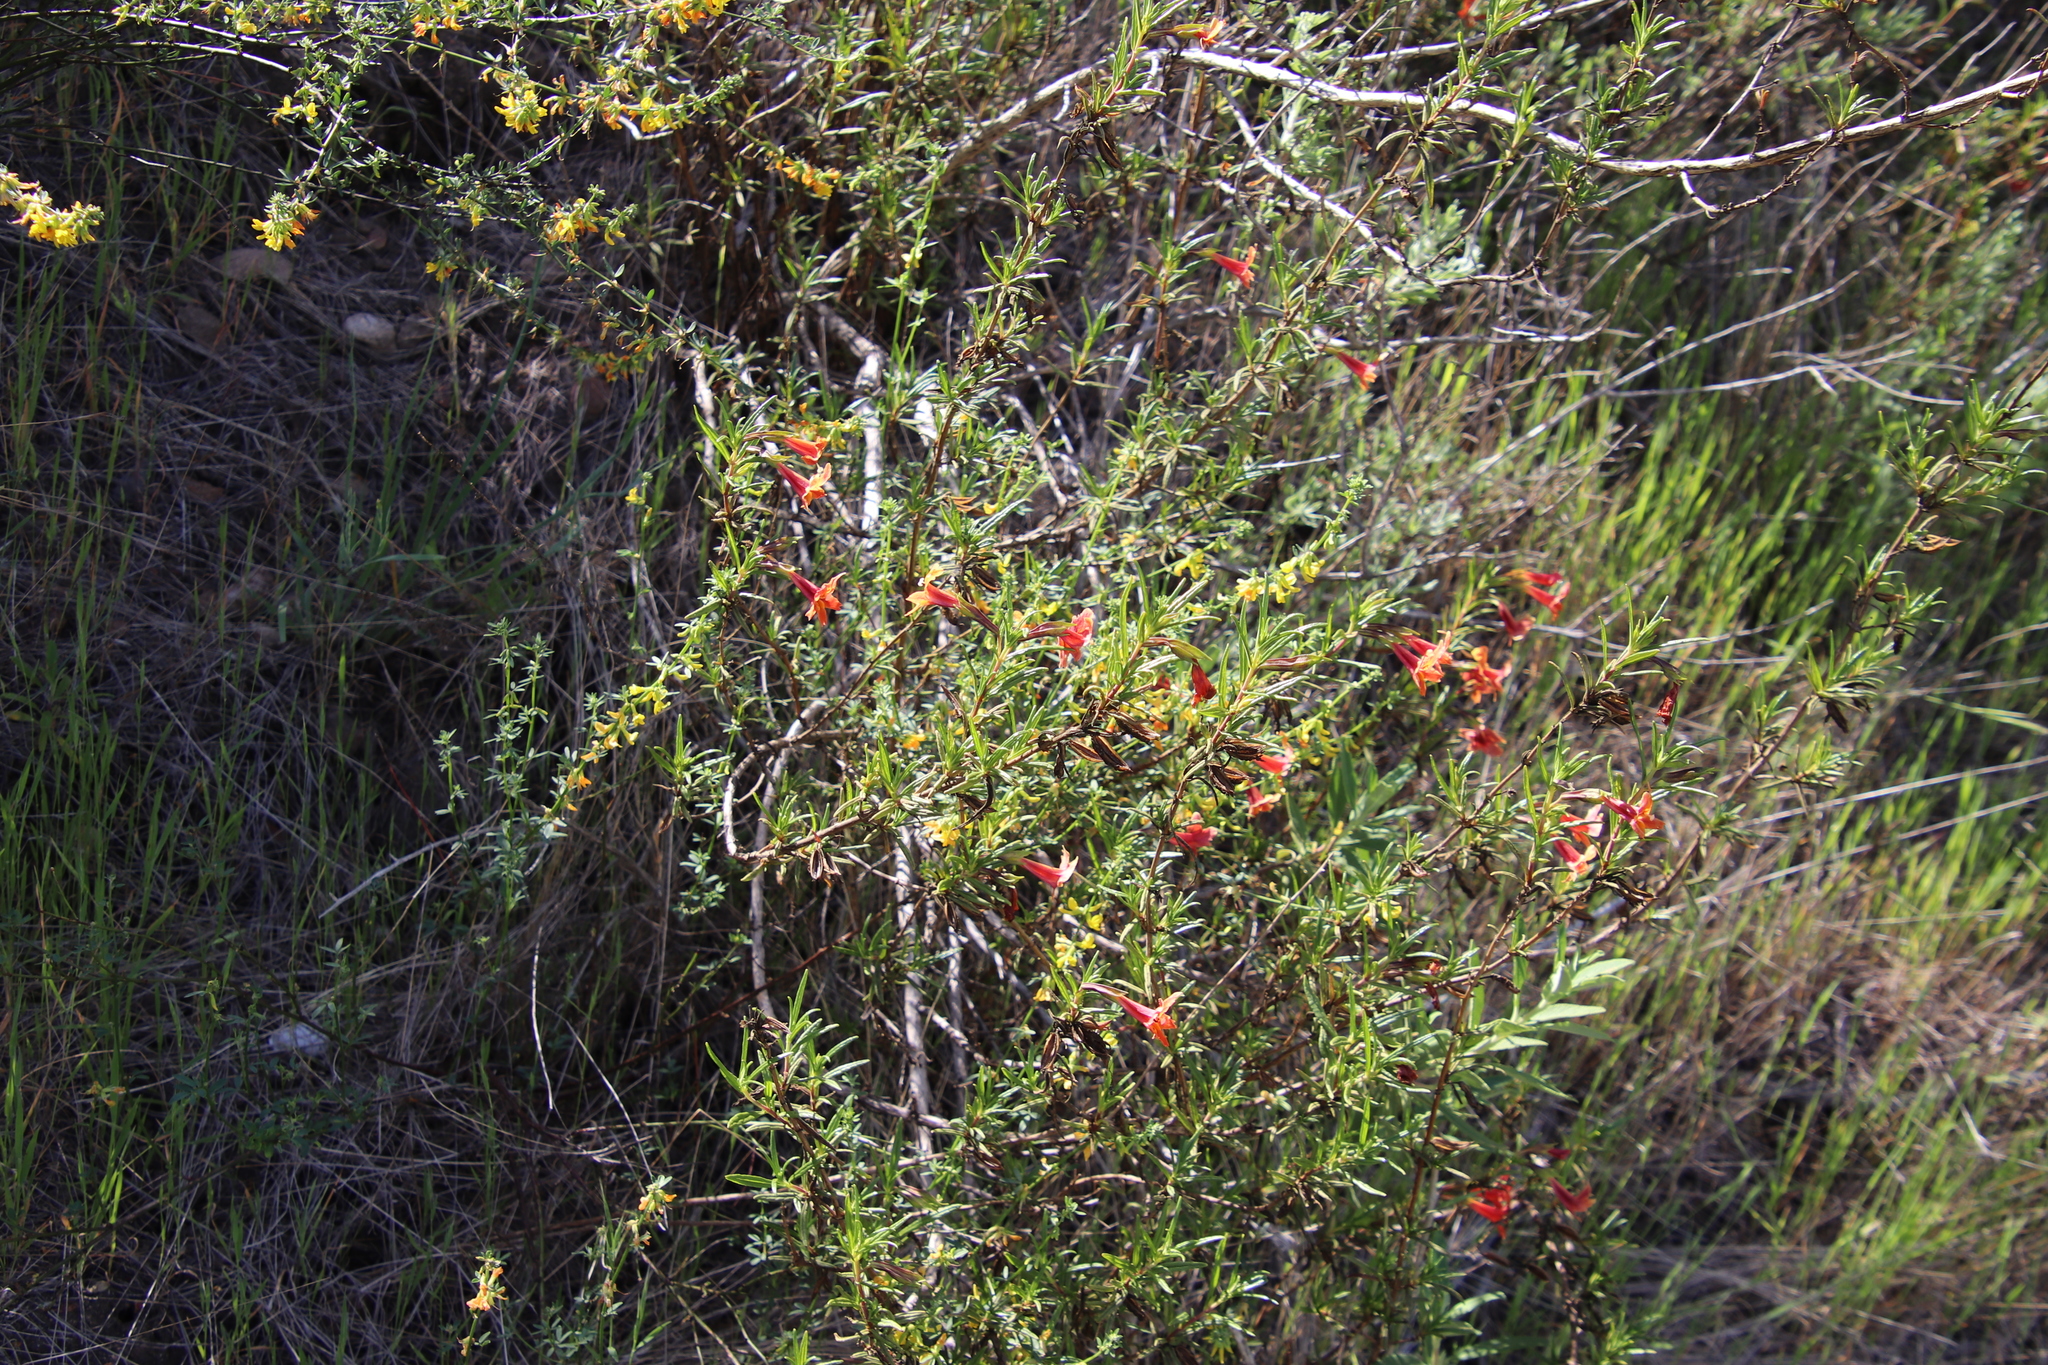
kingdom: Plantae
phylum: Tracheophyta
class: Magnoliopsida
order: Lamiales
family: Phrymaceae
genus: Diplacus
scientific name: Diplacus australis
